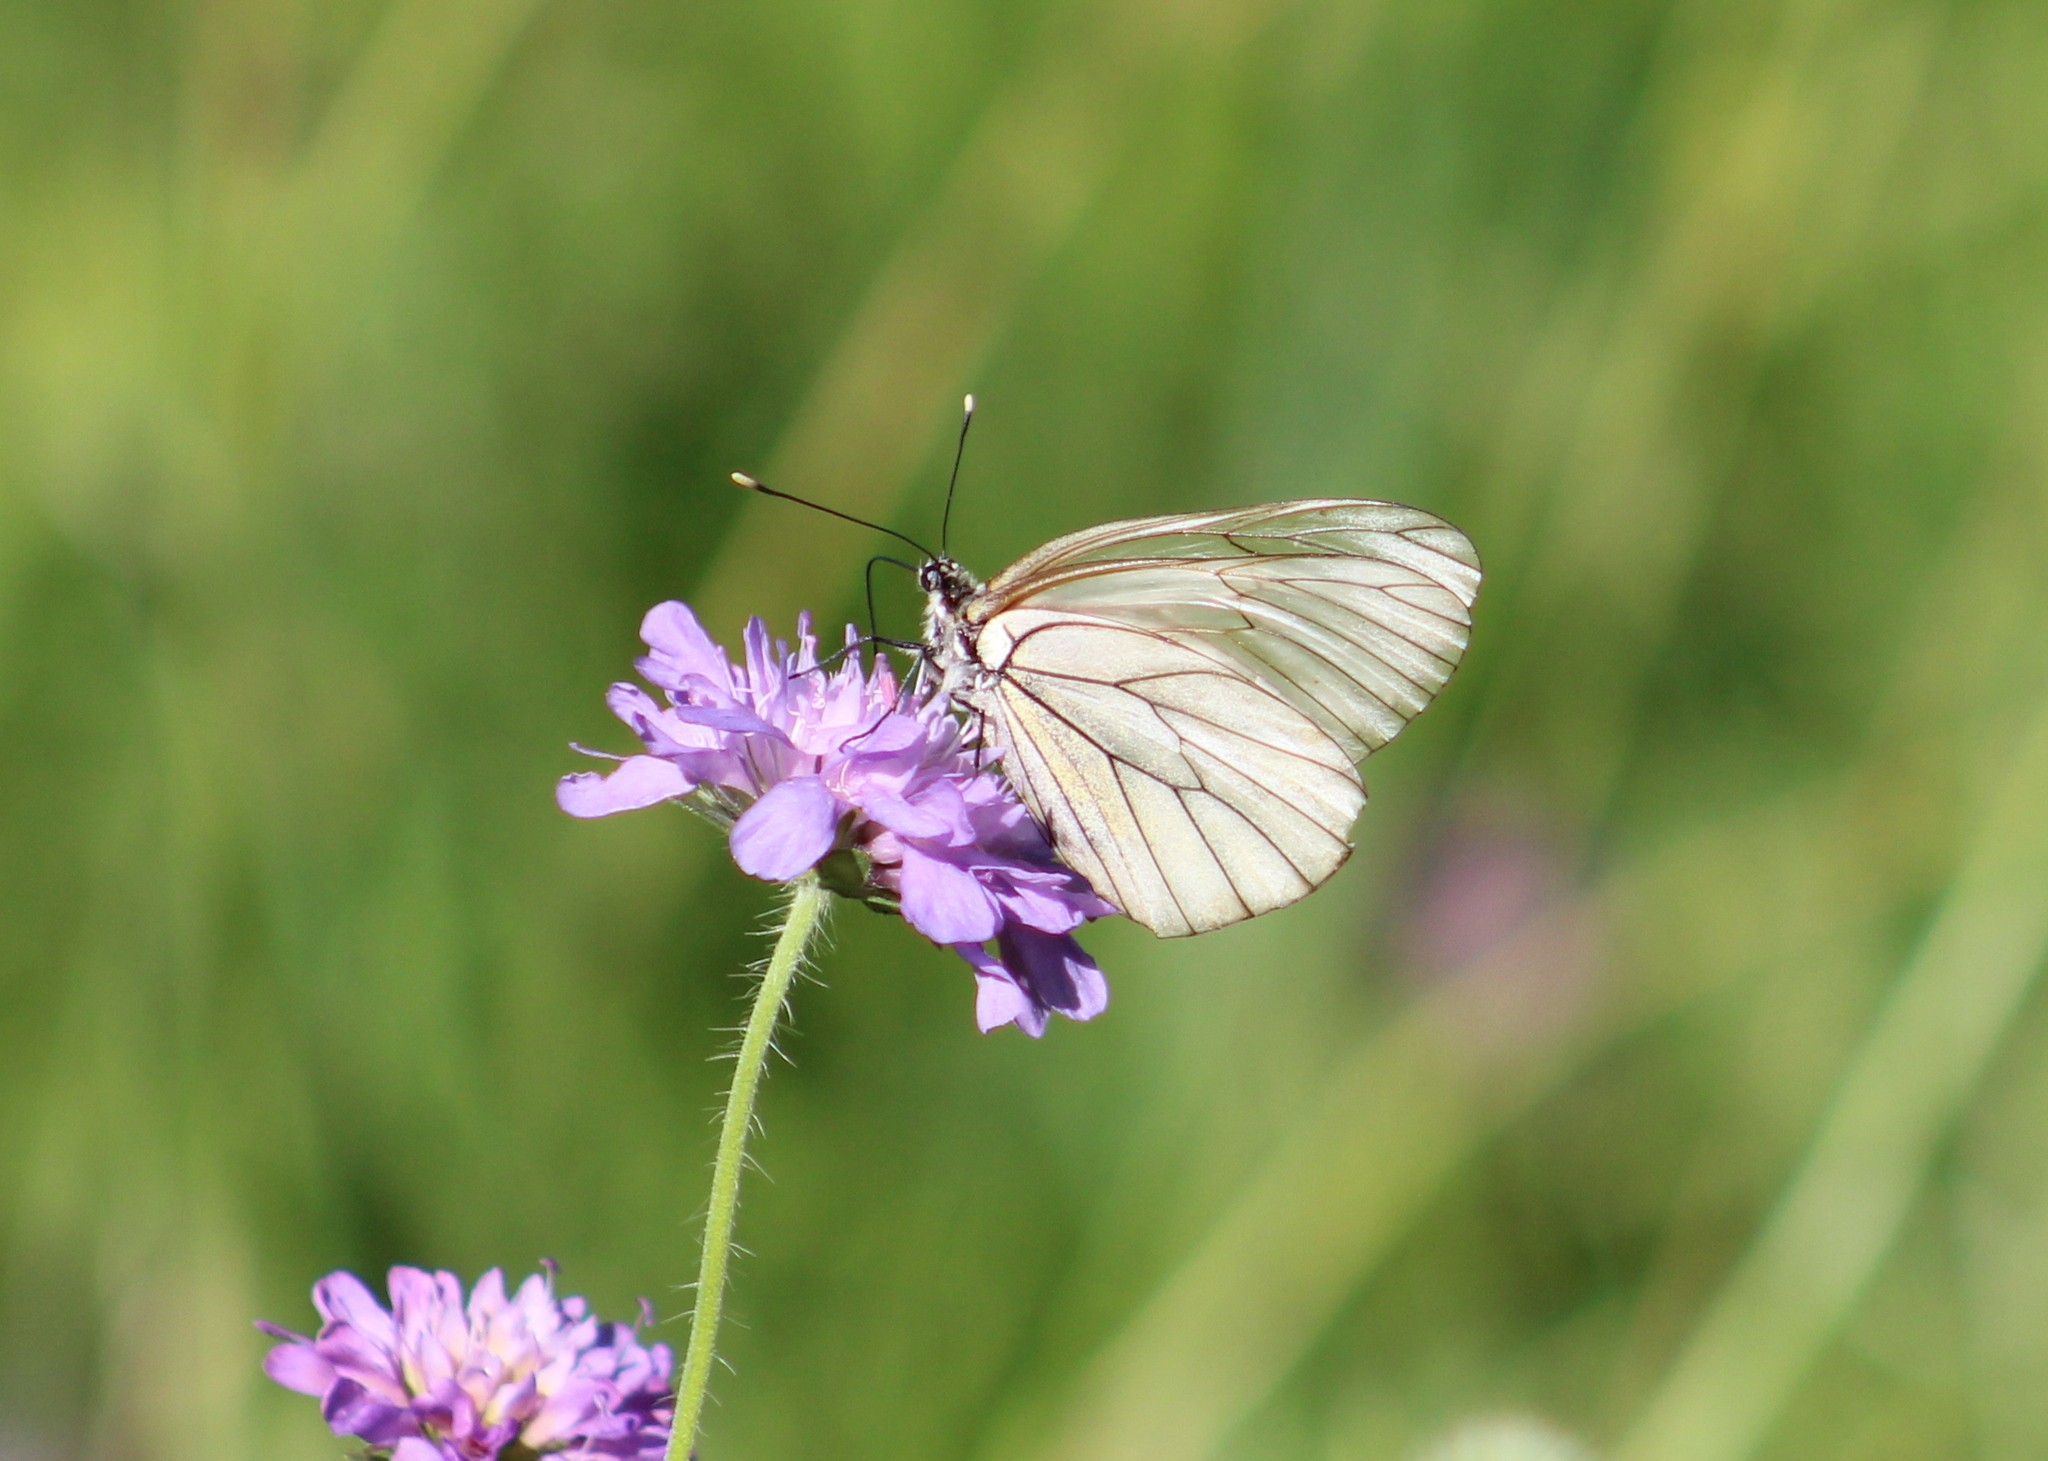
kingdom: Animalia
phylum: Arthropoda
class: Insecta
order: Lepidoptera
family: Pieridae
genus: Aporia
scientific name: Aporia crataegi
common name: Black-veined white
